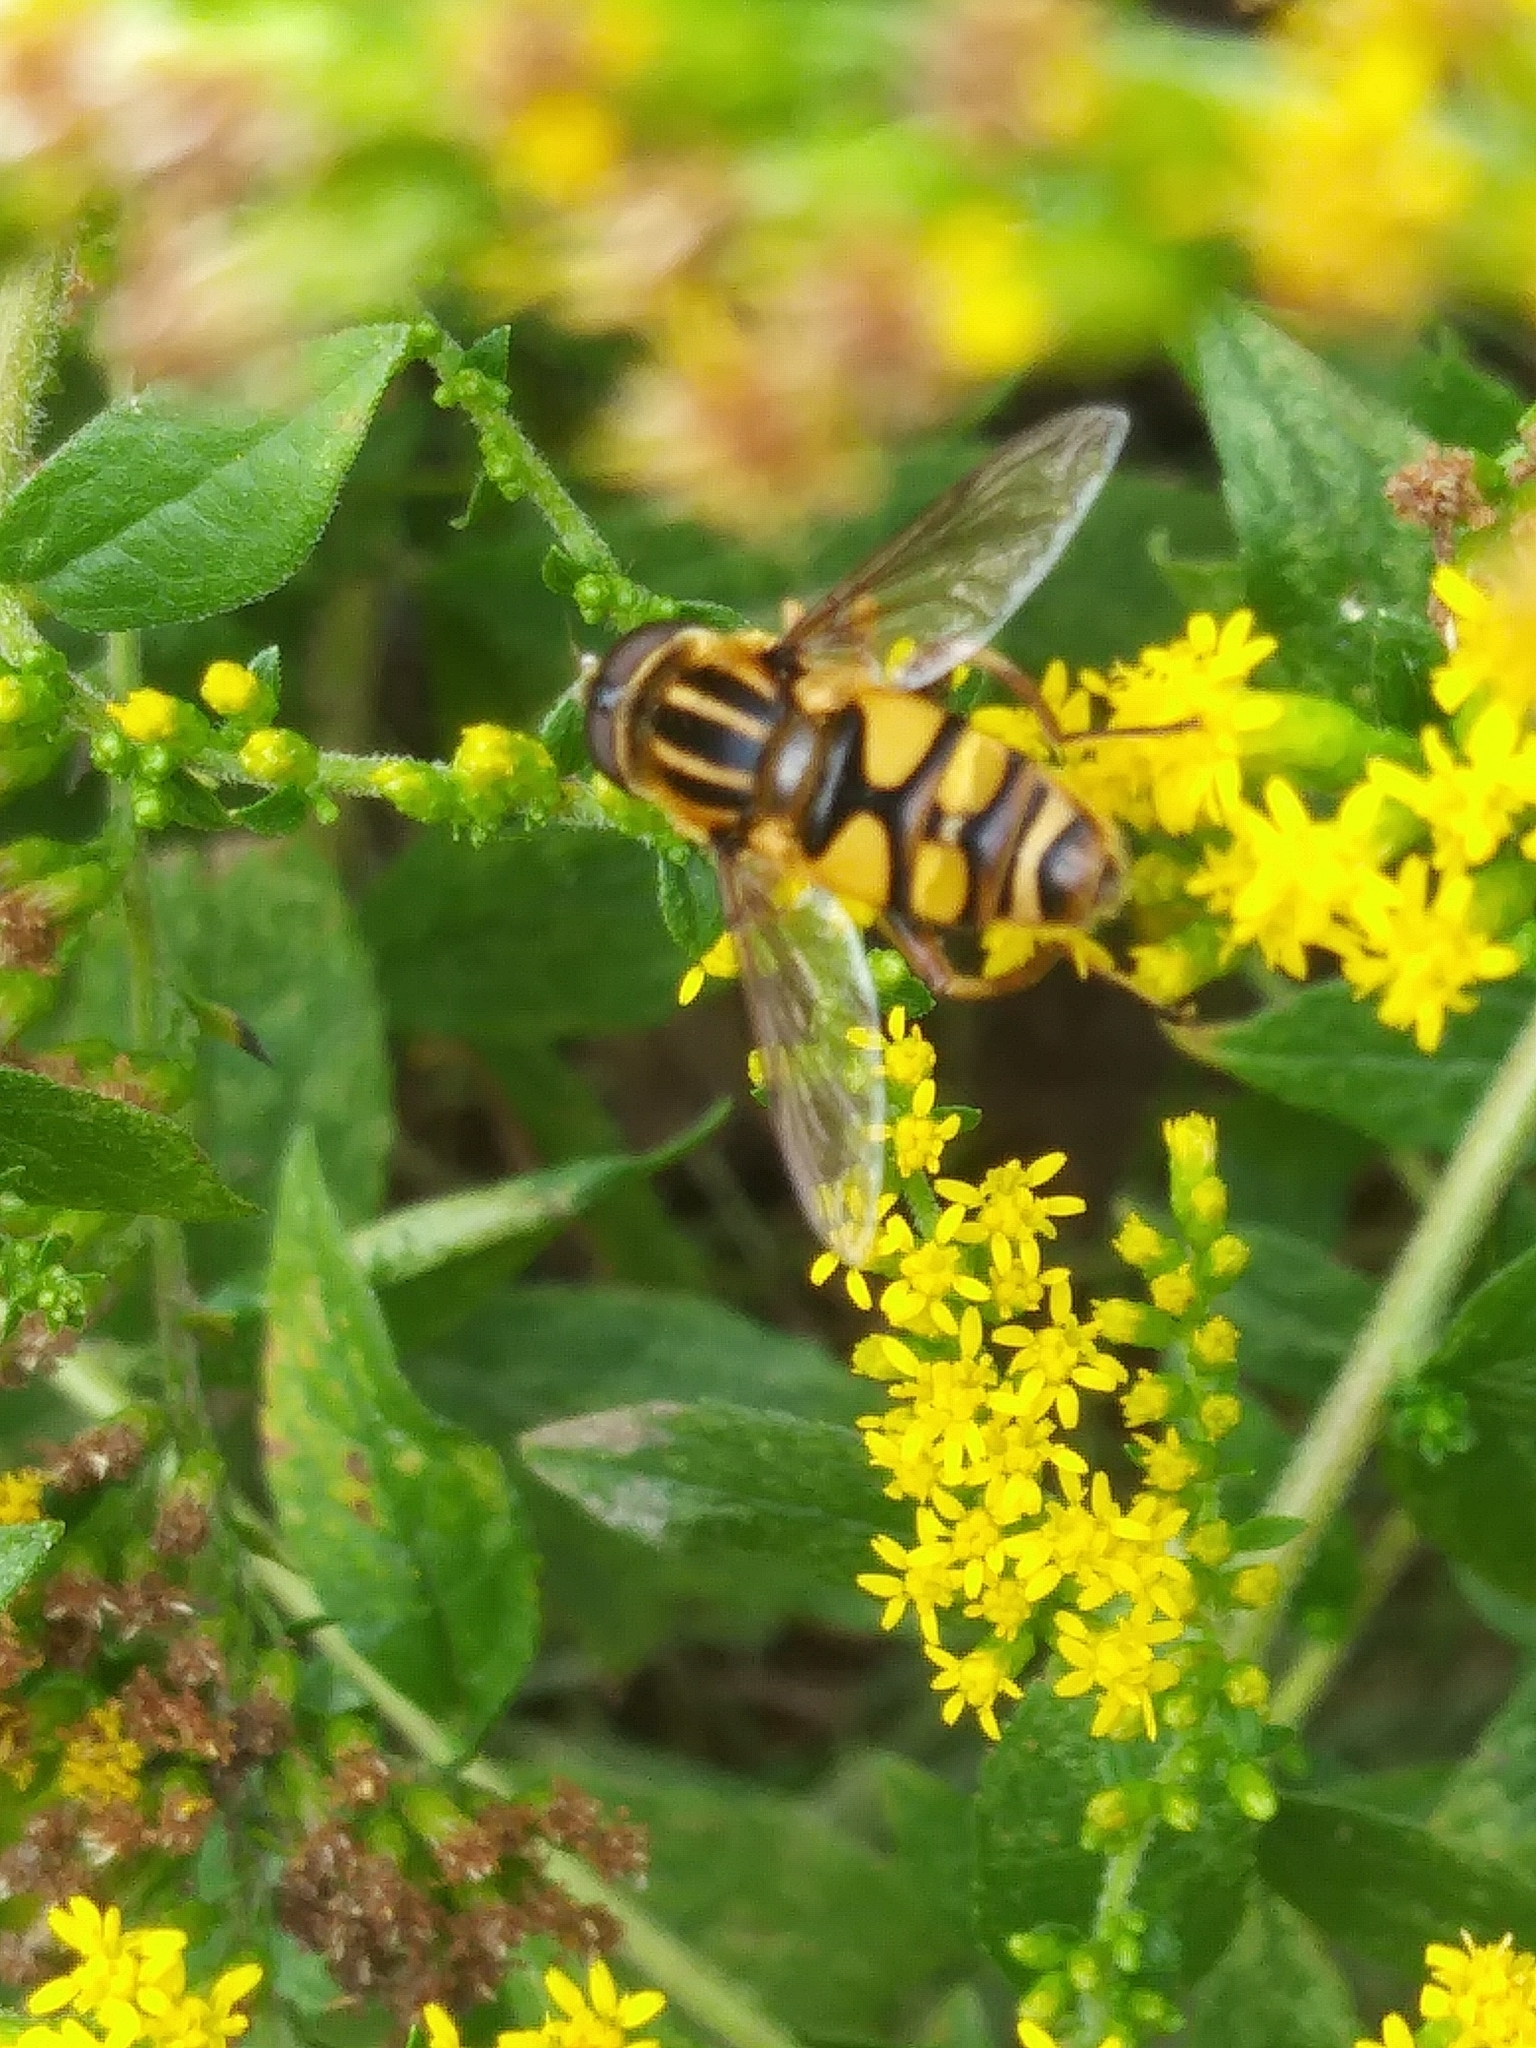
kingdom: Animalia
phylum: Arthropoda
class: Insecta
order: Diptera
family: Syrphidae
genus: Helophilus
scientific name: Helophilus fasciatus
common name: Narrow-headed marsh fly
